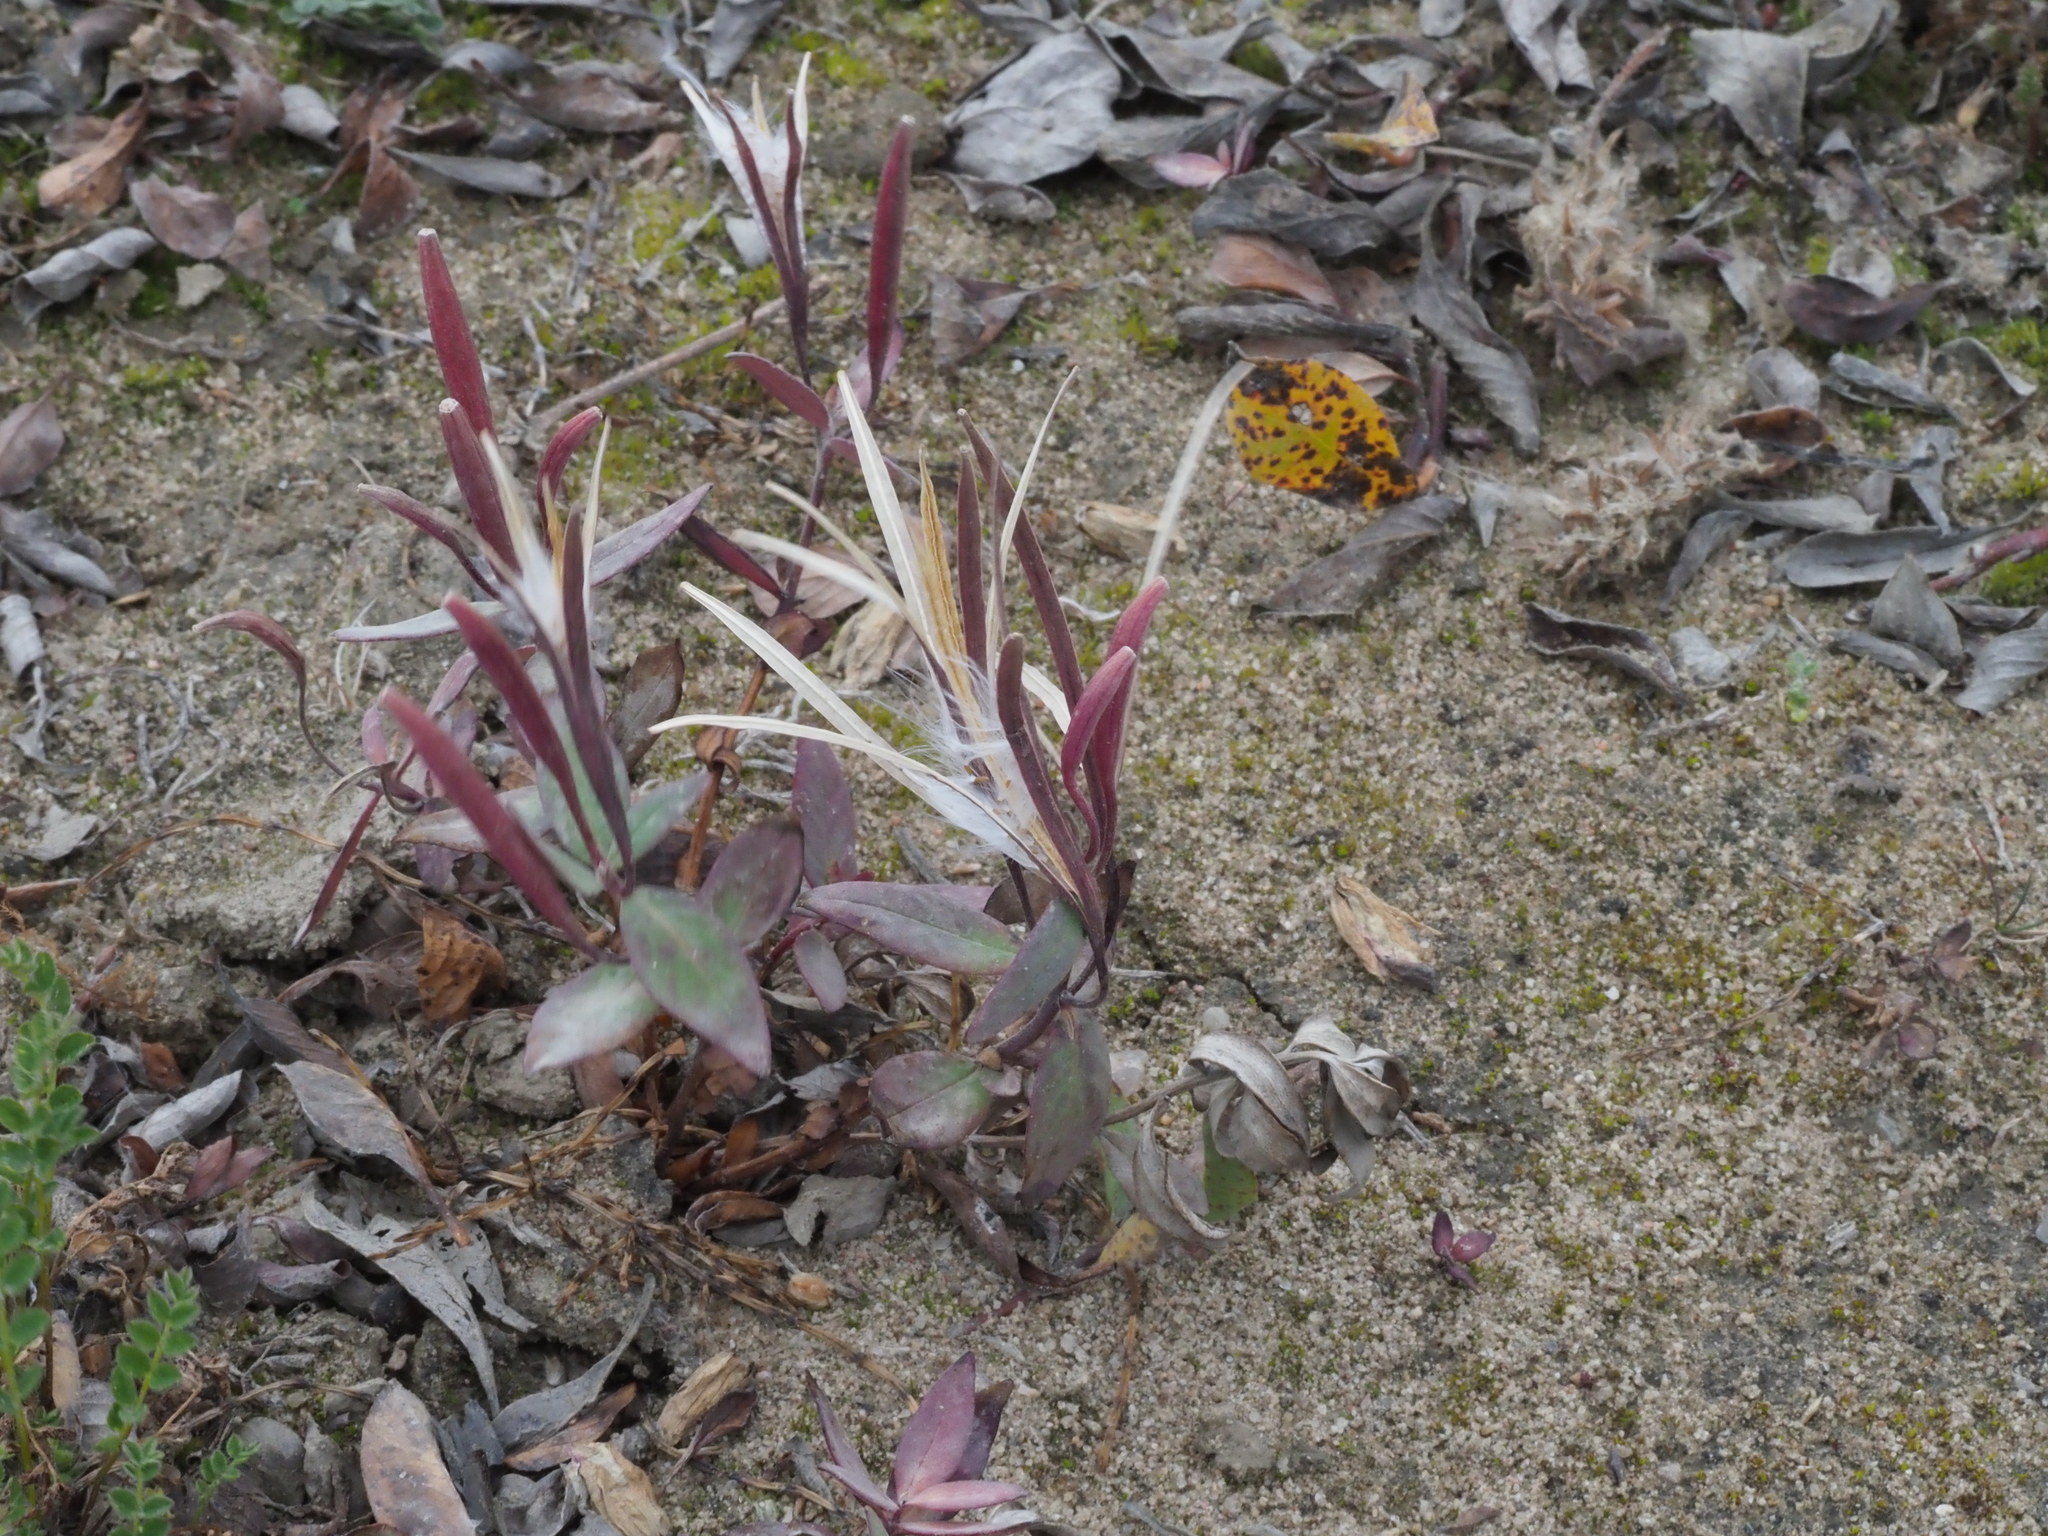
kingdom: Plantae
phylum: Tracheophyta
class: Magnoliopsida
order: Myrtales
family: Onagraceae
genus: Chamaenerion
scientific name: Chamaenerion latifolium
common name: Dwarf fireweed
